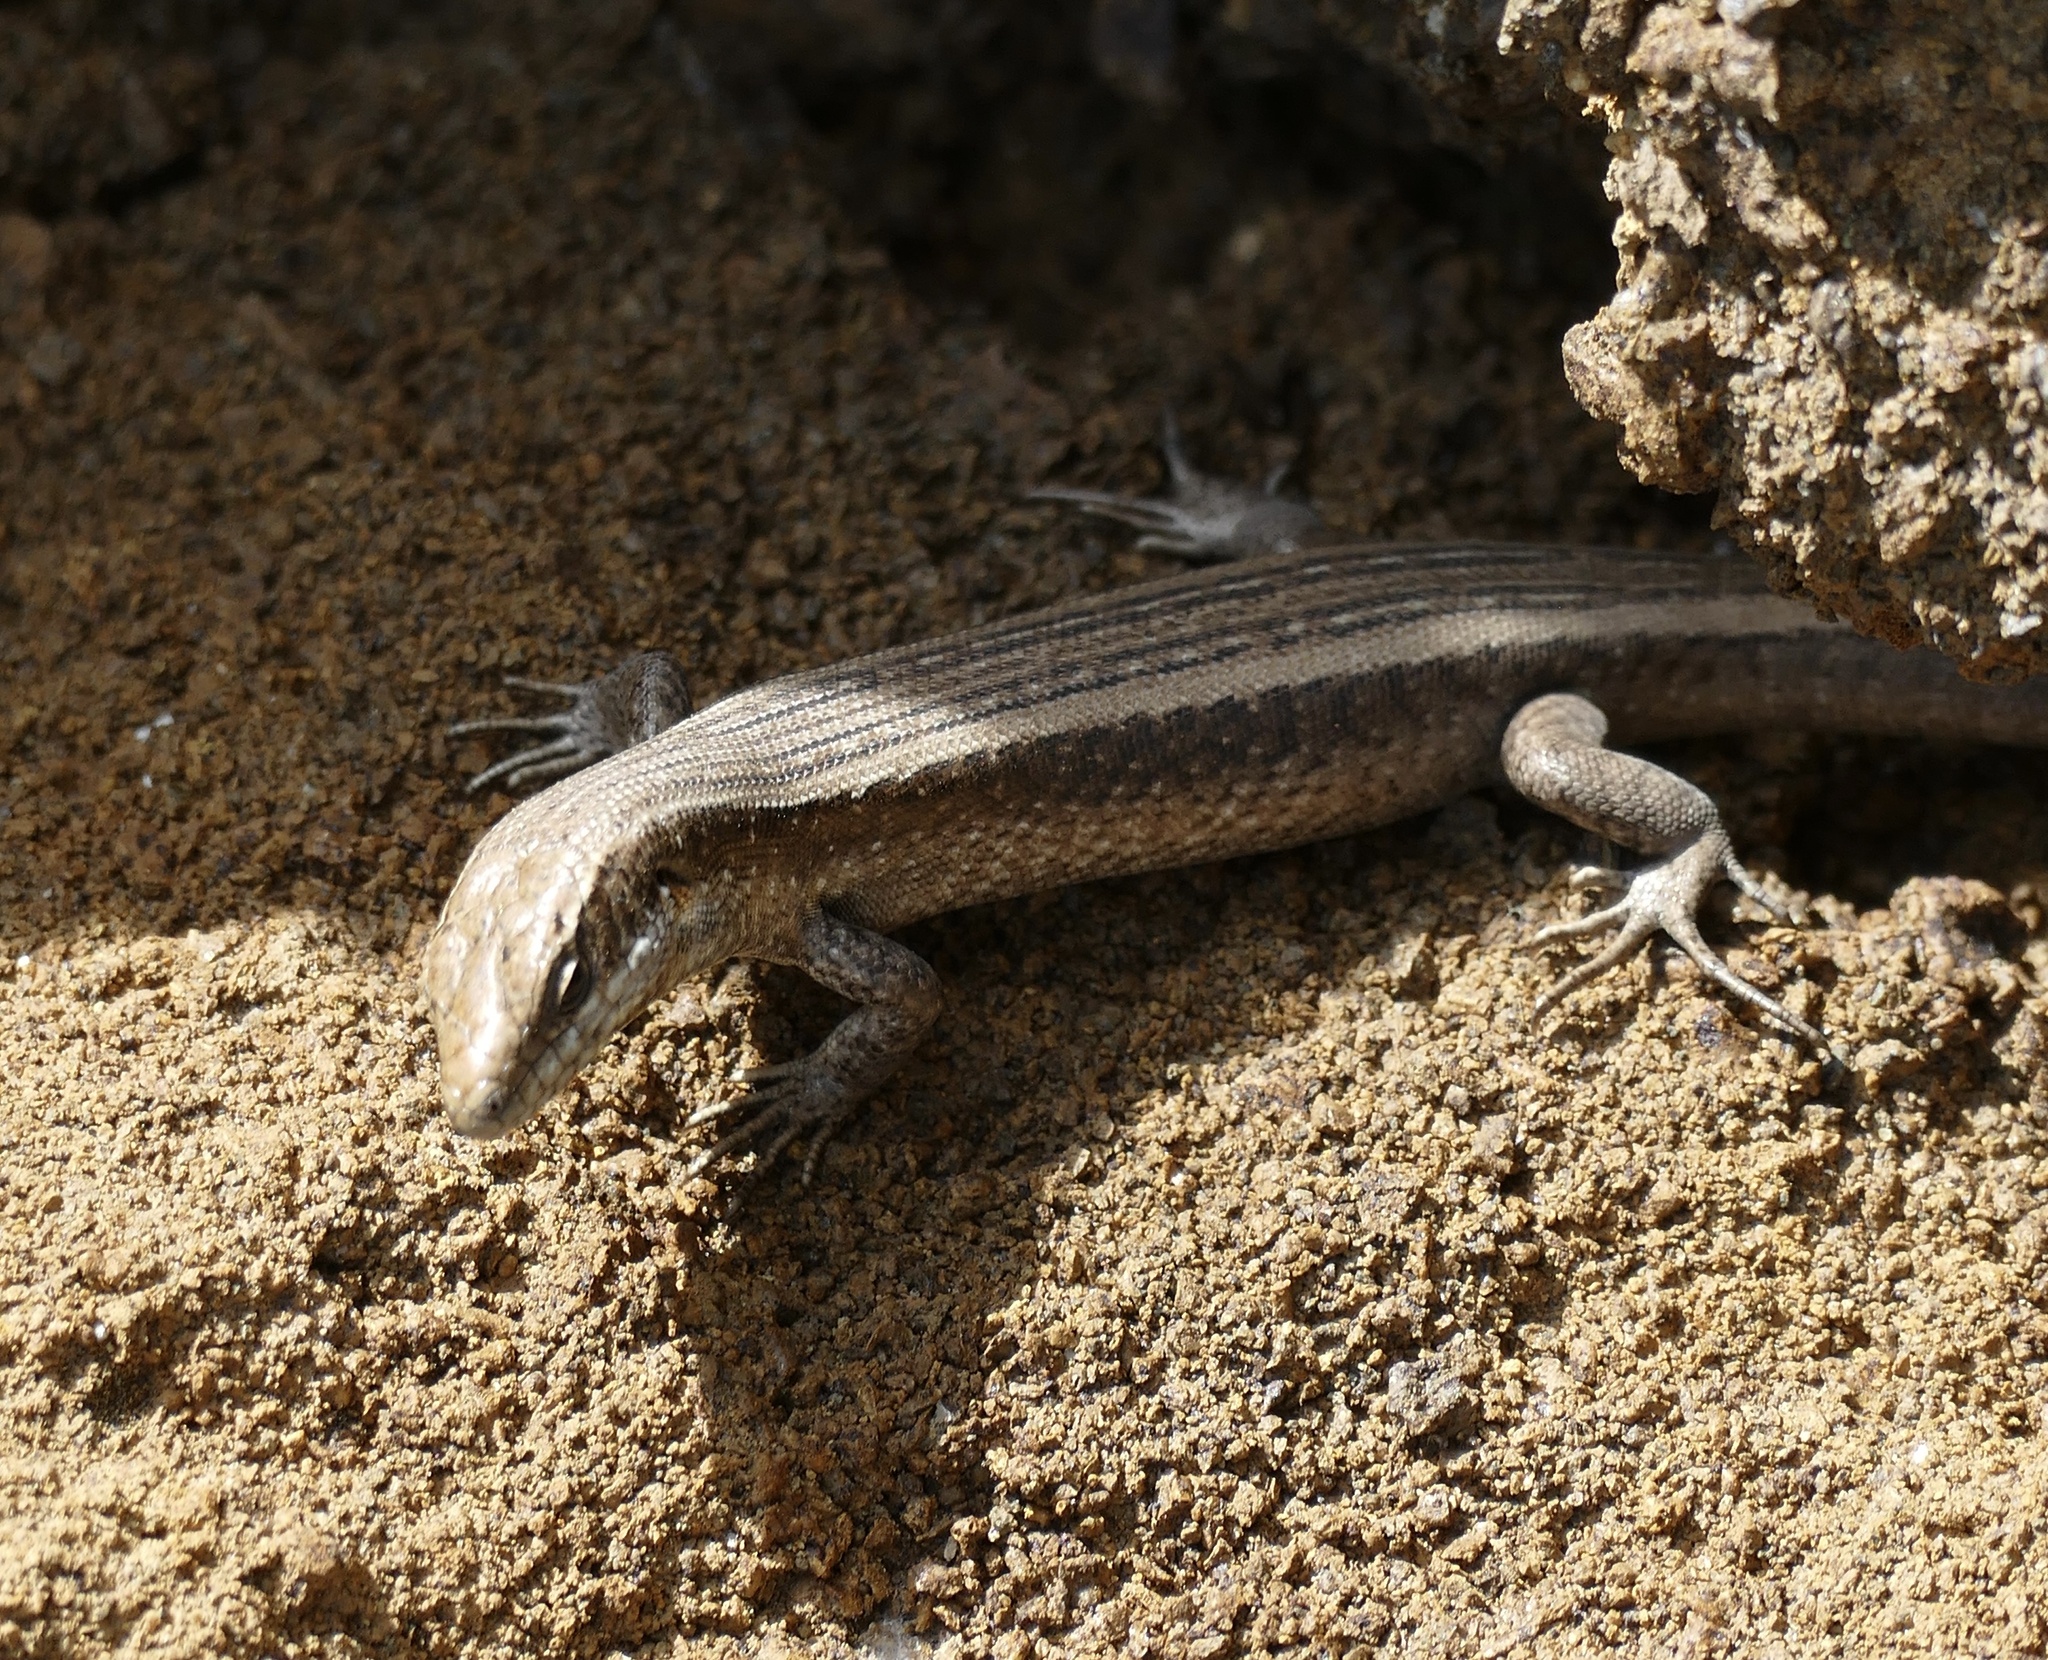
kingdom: Animalia
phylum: Chordata
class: Squamata
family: Scincidae
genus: Chioninia
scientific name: Chioninia fogoensis
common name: Fogo's mabuya
